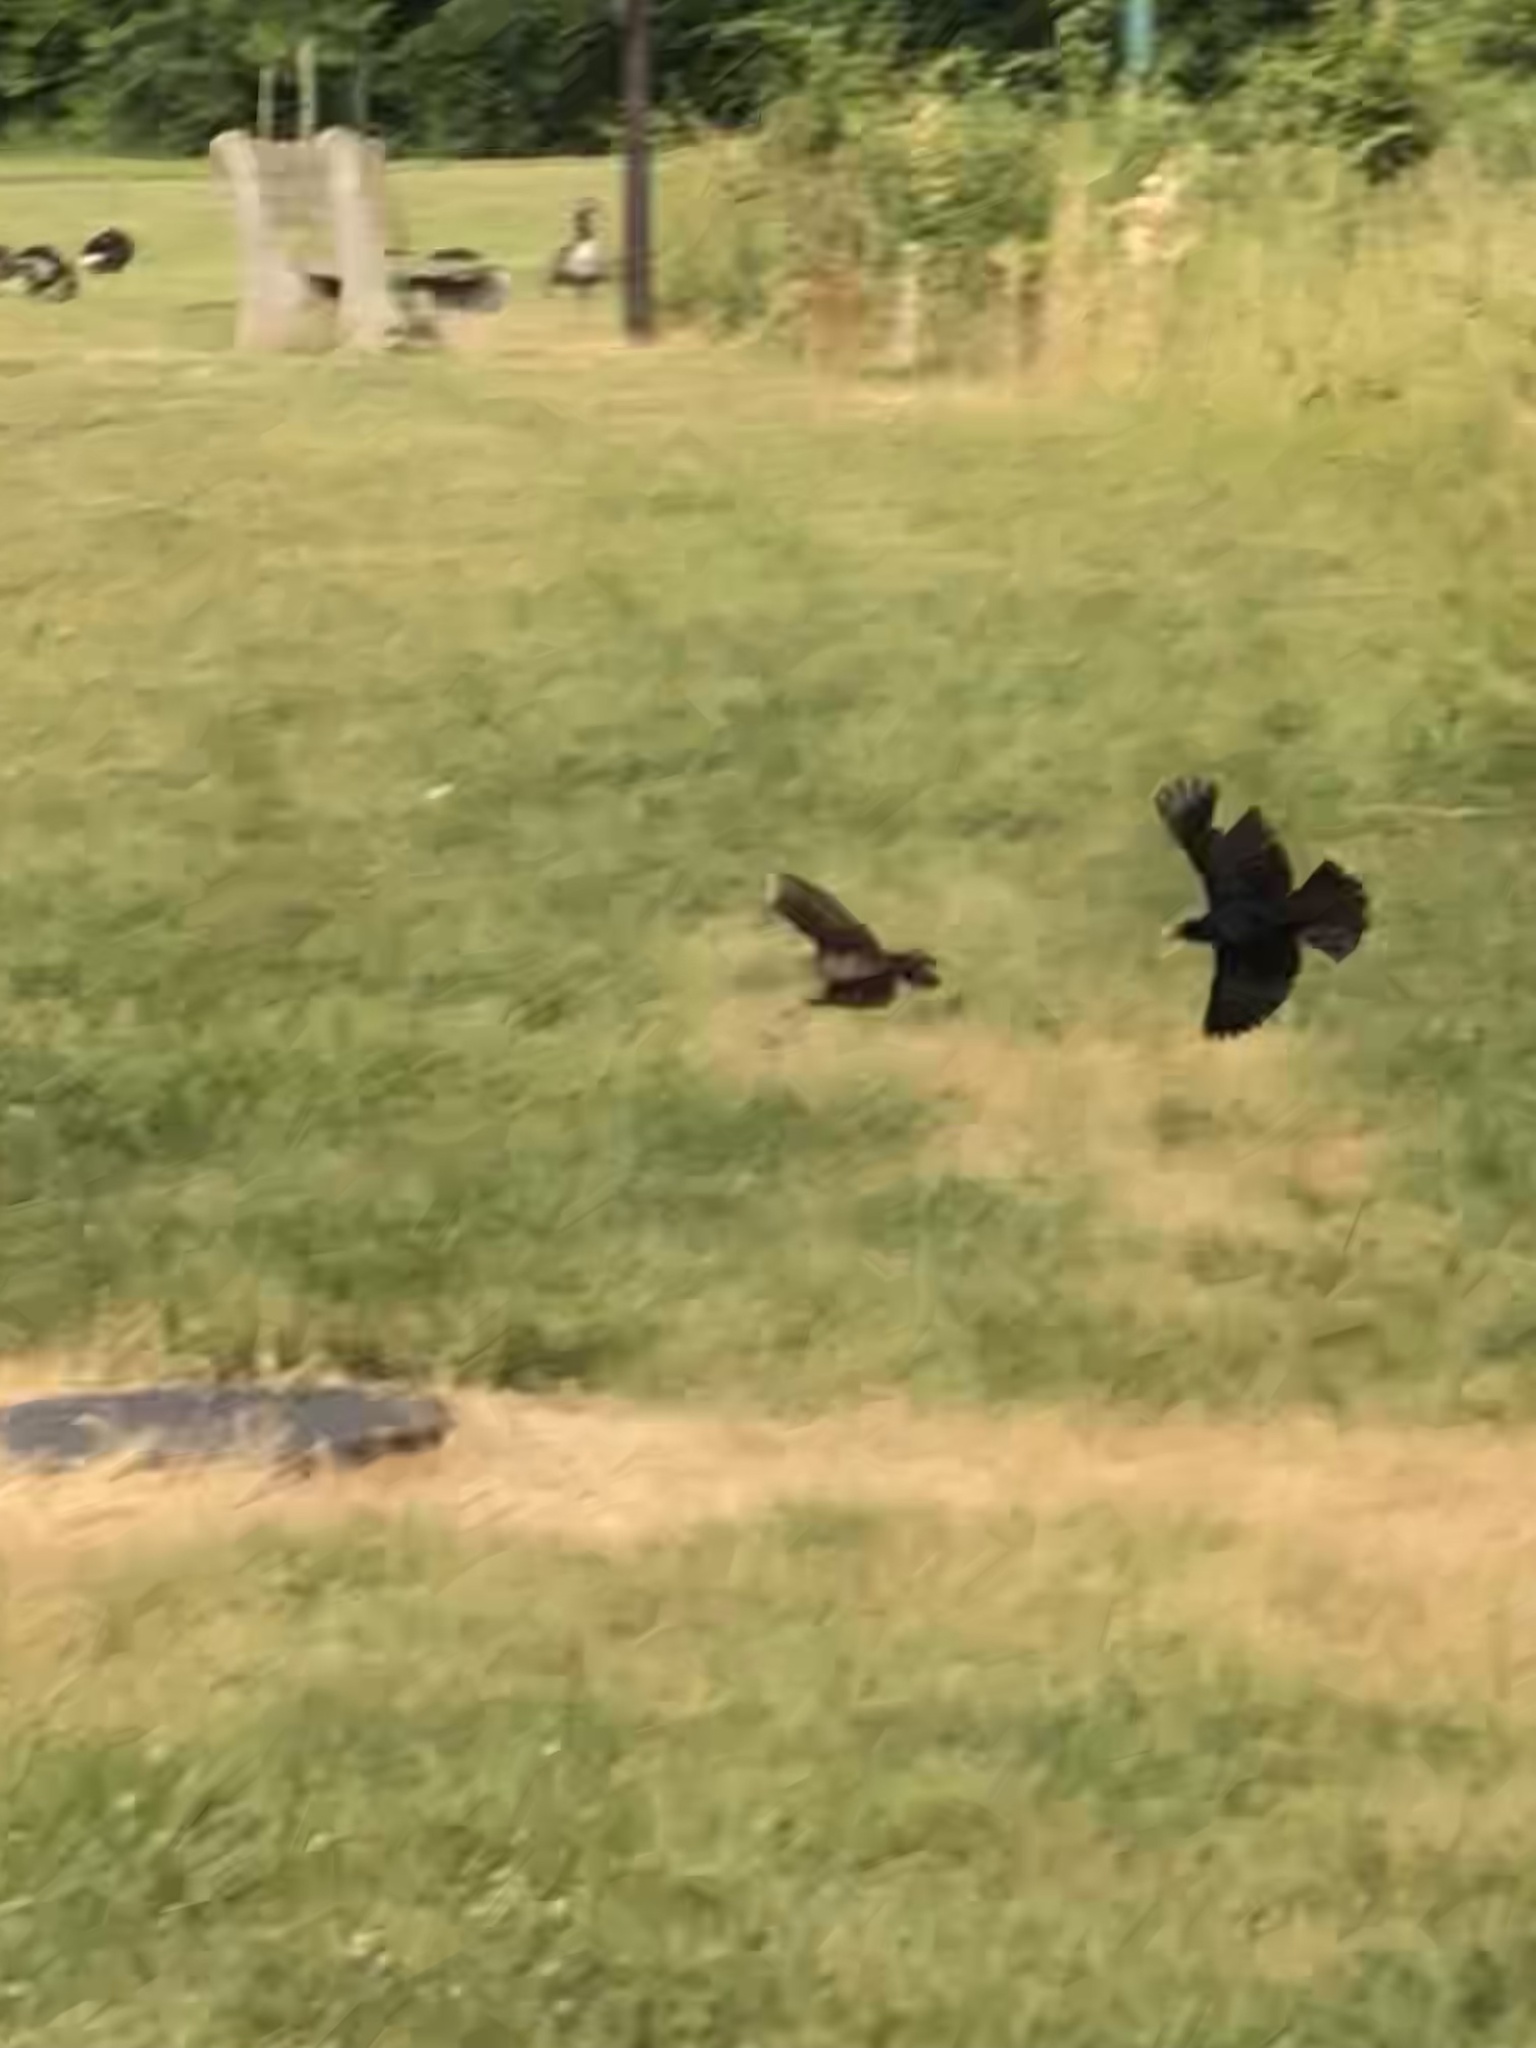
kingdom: Animalia
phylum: Chordata
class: Aves
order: Passeriformes
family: Icteridae
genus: Agelaius
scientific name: Agelaius phoeniceus
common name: Red-winged blackbird
